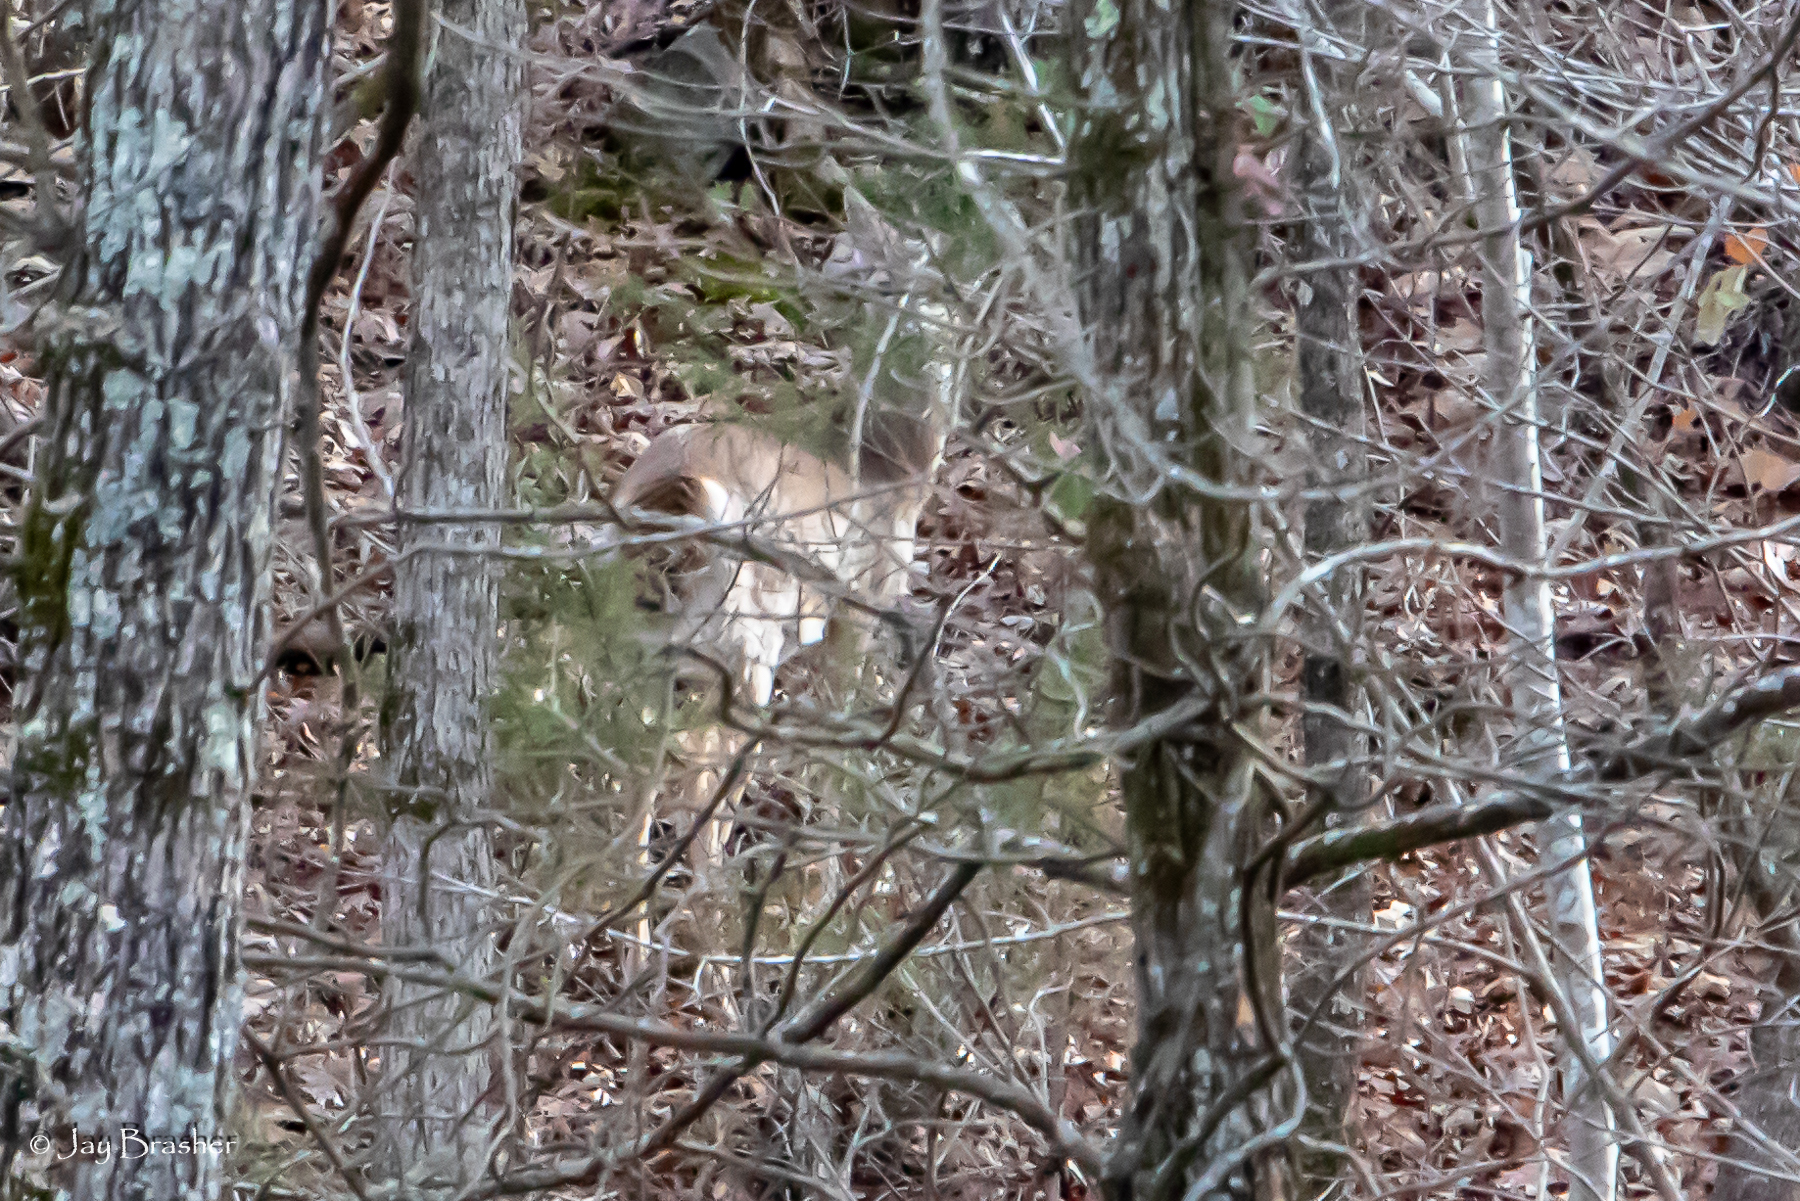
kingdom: Animalia
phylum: Chordata
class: Mammalia
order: Artiodactyla
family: Cervidae
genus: Odocoileus
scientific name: Odocoileus virginianus
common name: White-tailed deer
